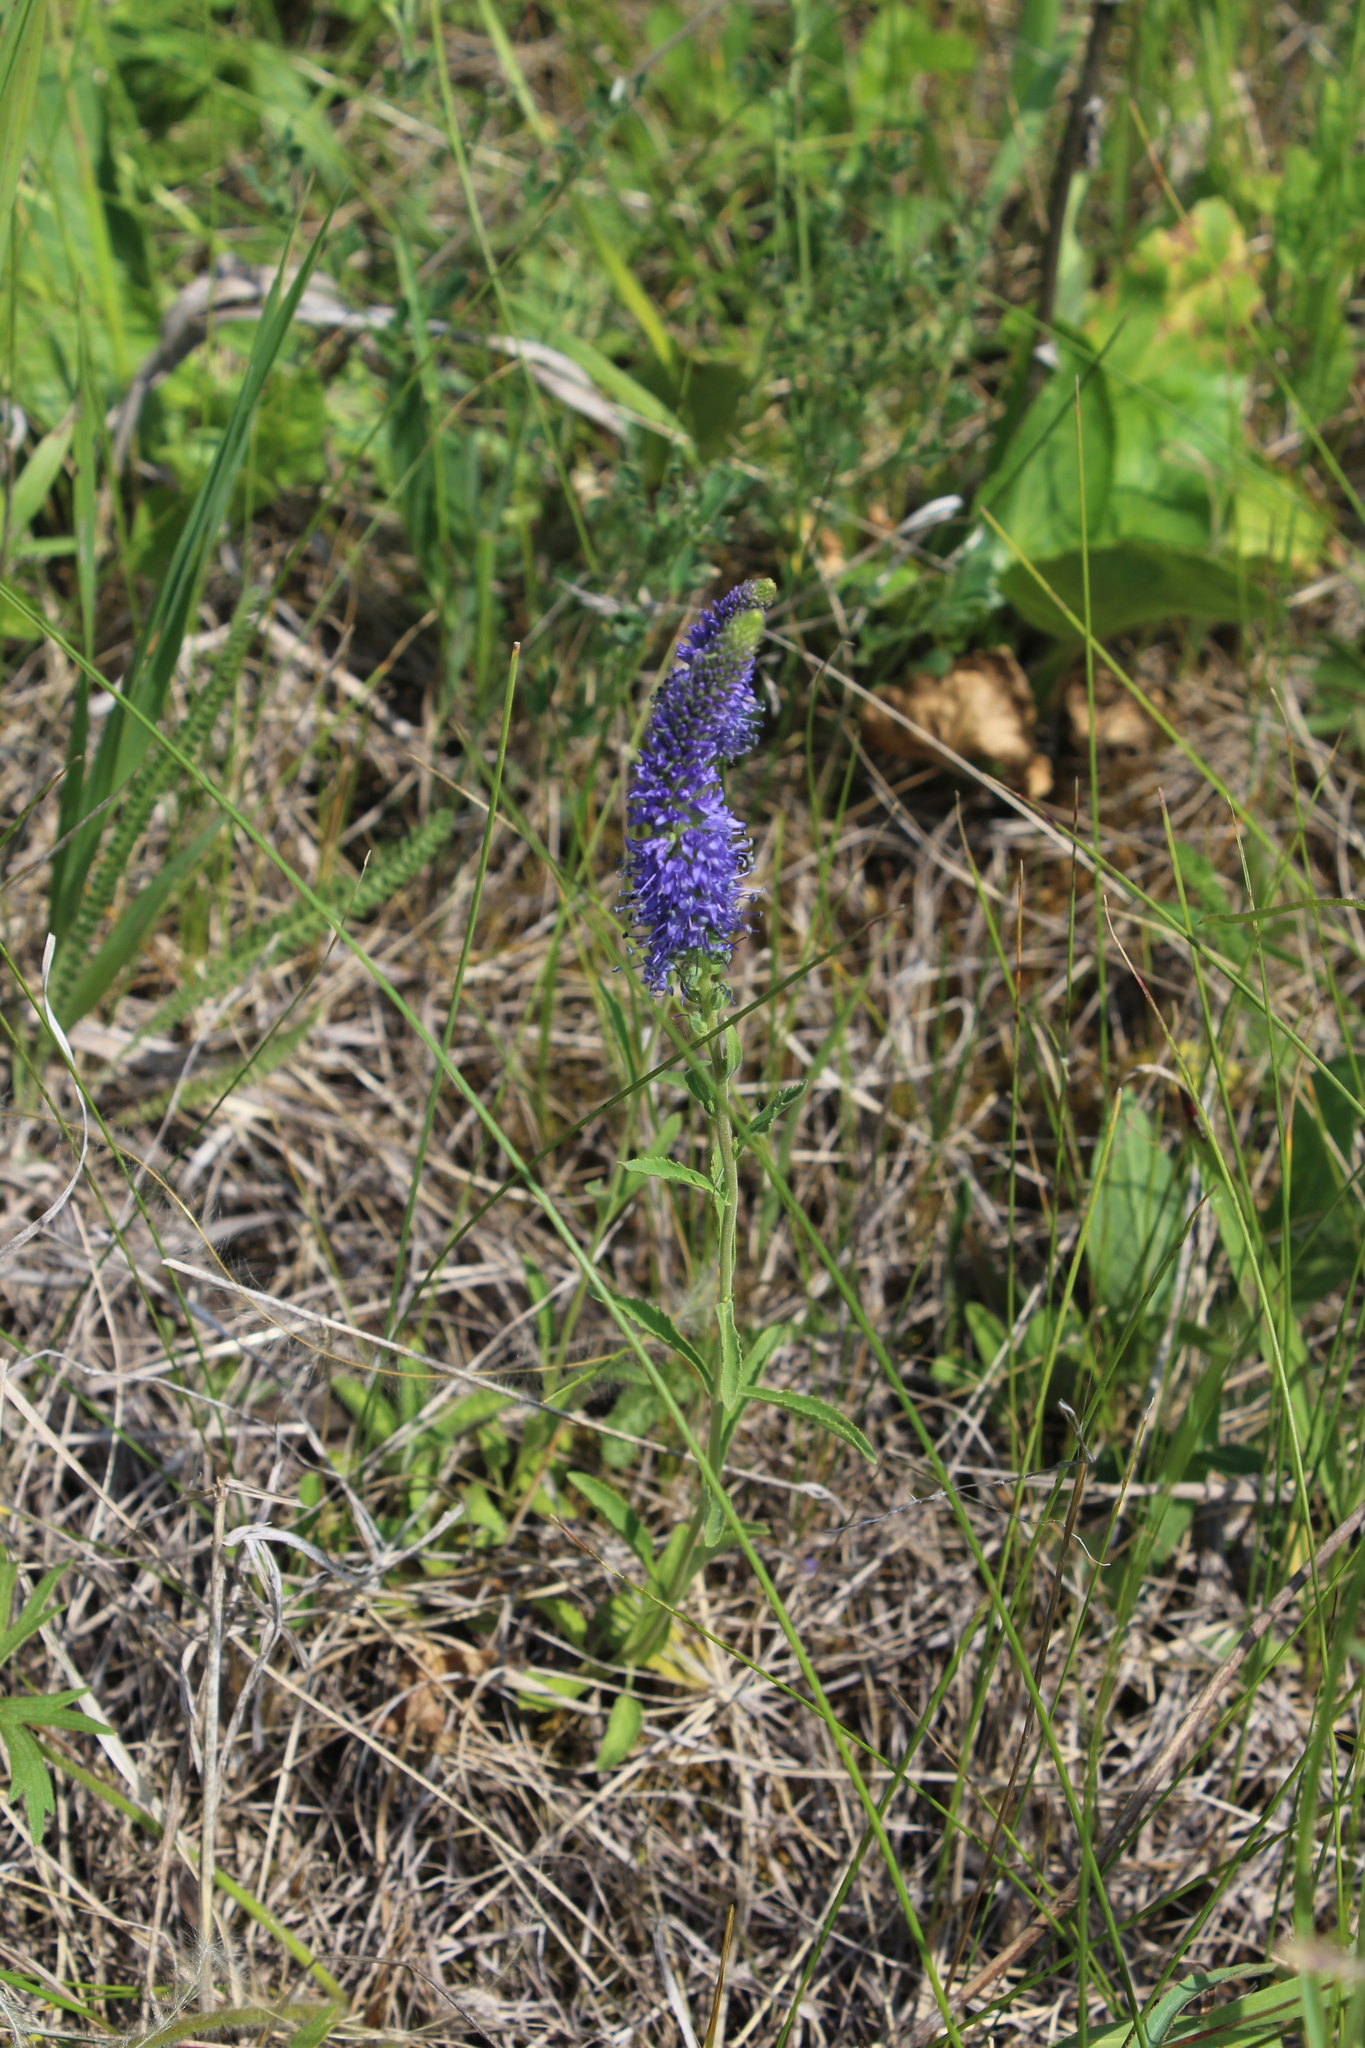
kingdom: Plantae
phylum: Tracheophyta
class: Magnoliopsida
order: Lamiales
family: Plantaginaceae
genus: Veronica
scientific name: Veronica spicata
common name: Spiked speedwell
